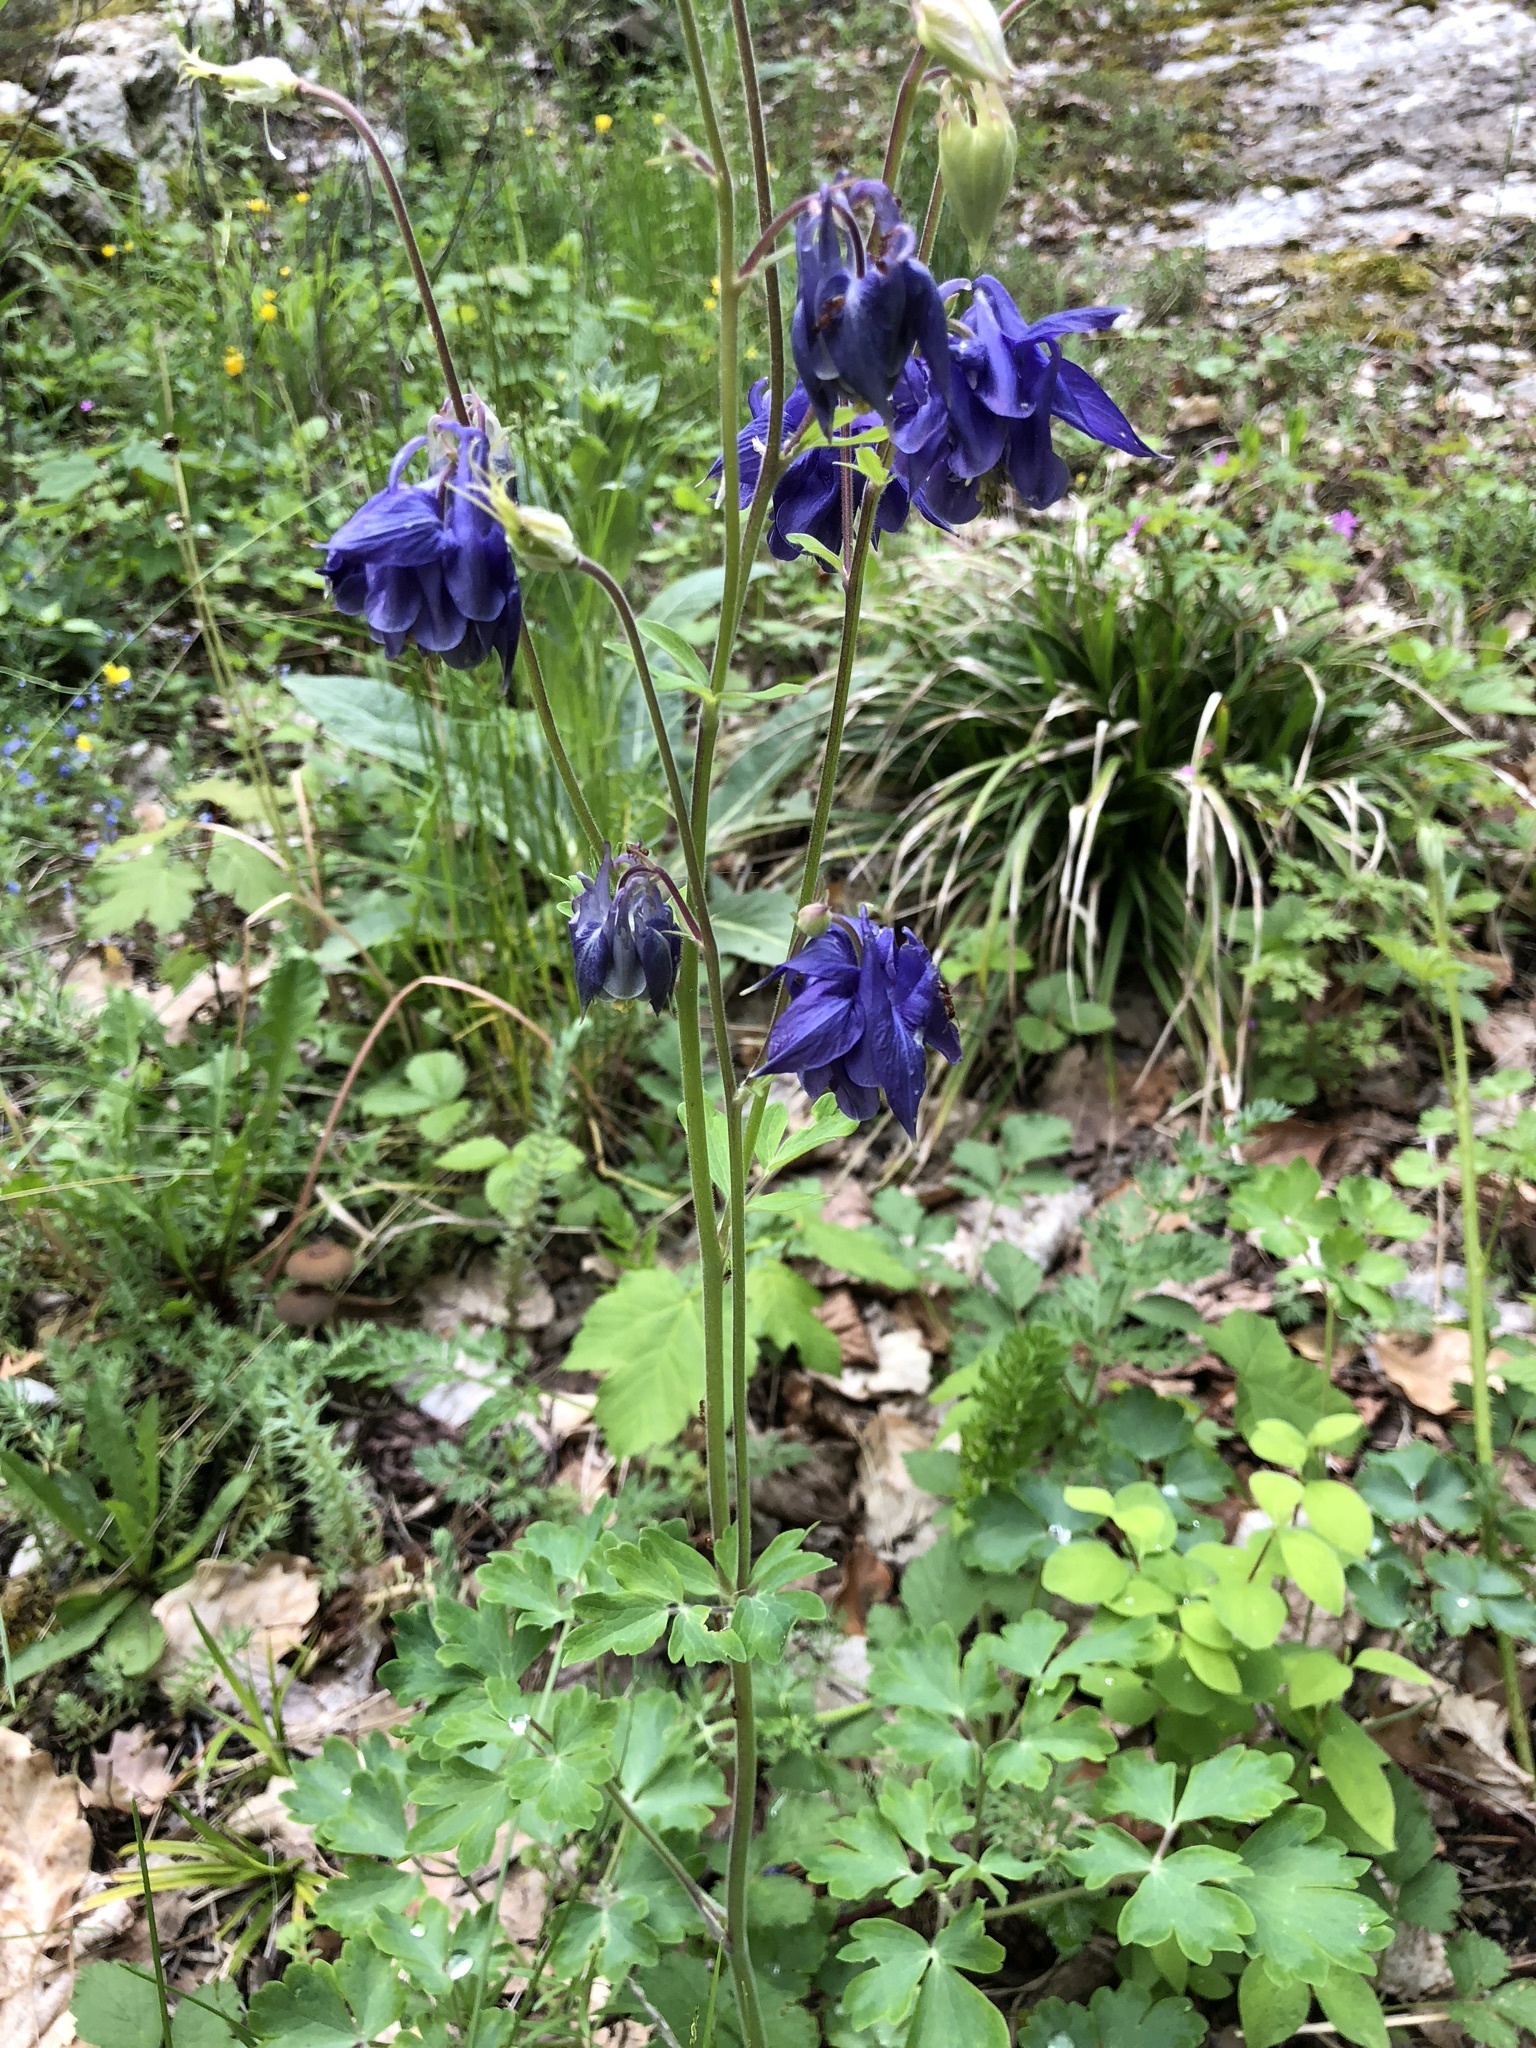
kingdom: Plantae
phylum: Tracheophyta
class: Magnoliopsida
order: Ranunculales
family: Ranunculaceae
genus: Aquilegia
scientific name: Aquilegia vulgaris
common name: Columbine
